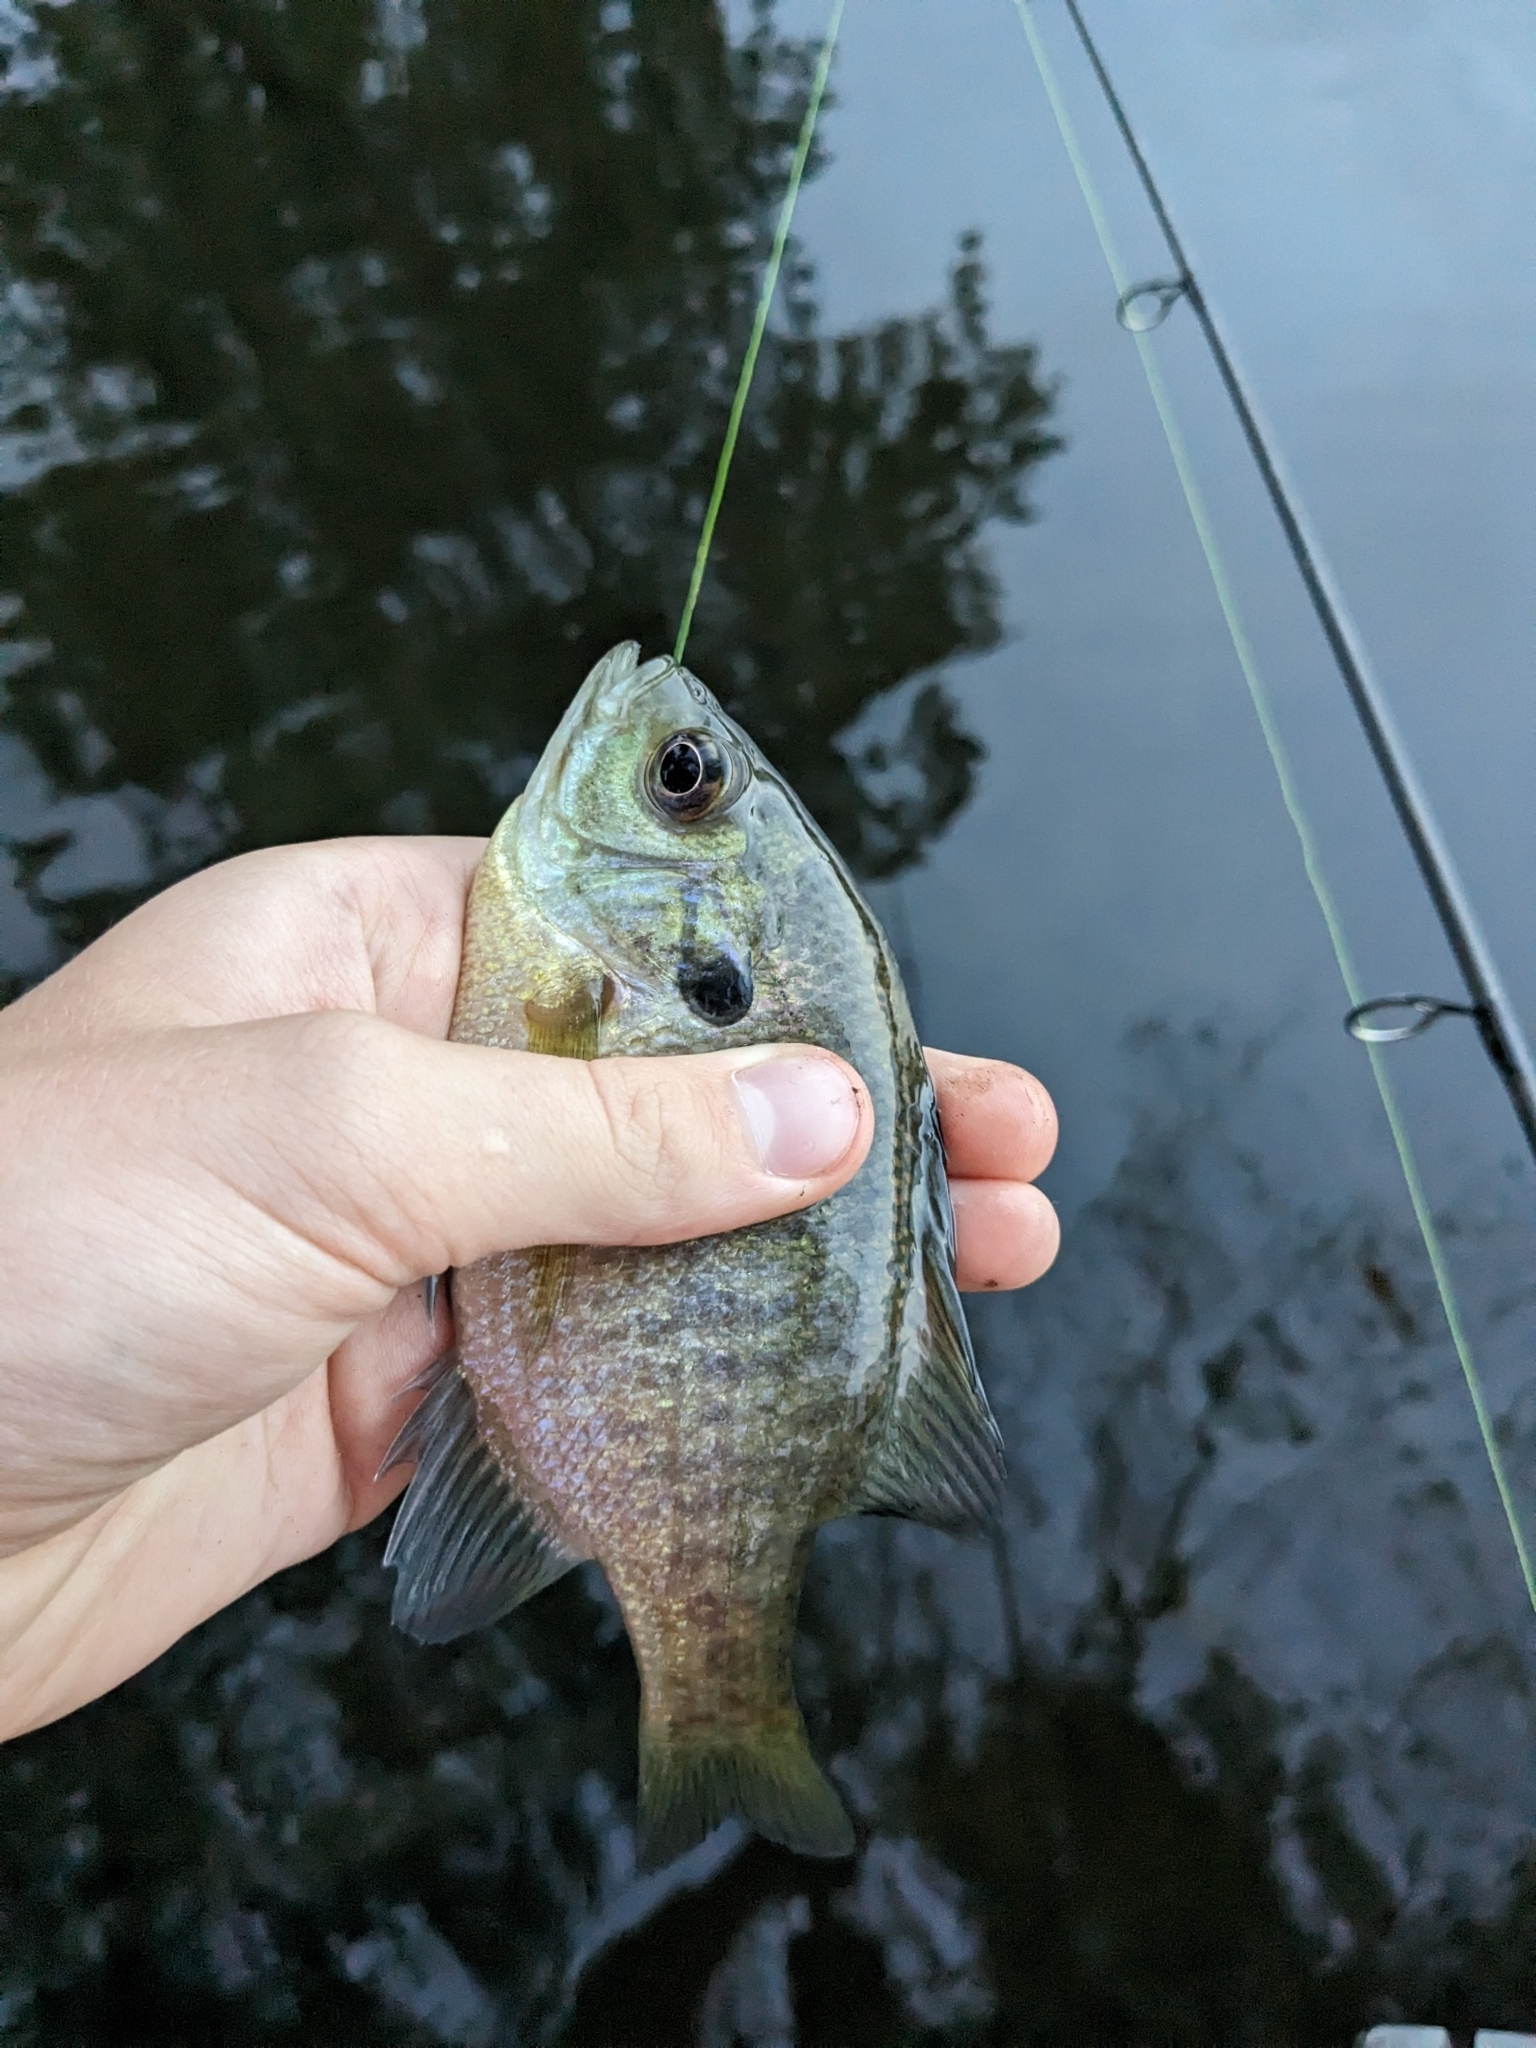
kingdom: Animalia
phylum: Chordata
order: Perciformes
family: Centrarchidae
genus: Lepomis
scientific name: Lepomis macrochirus
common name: Bluegill
